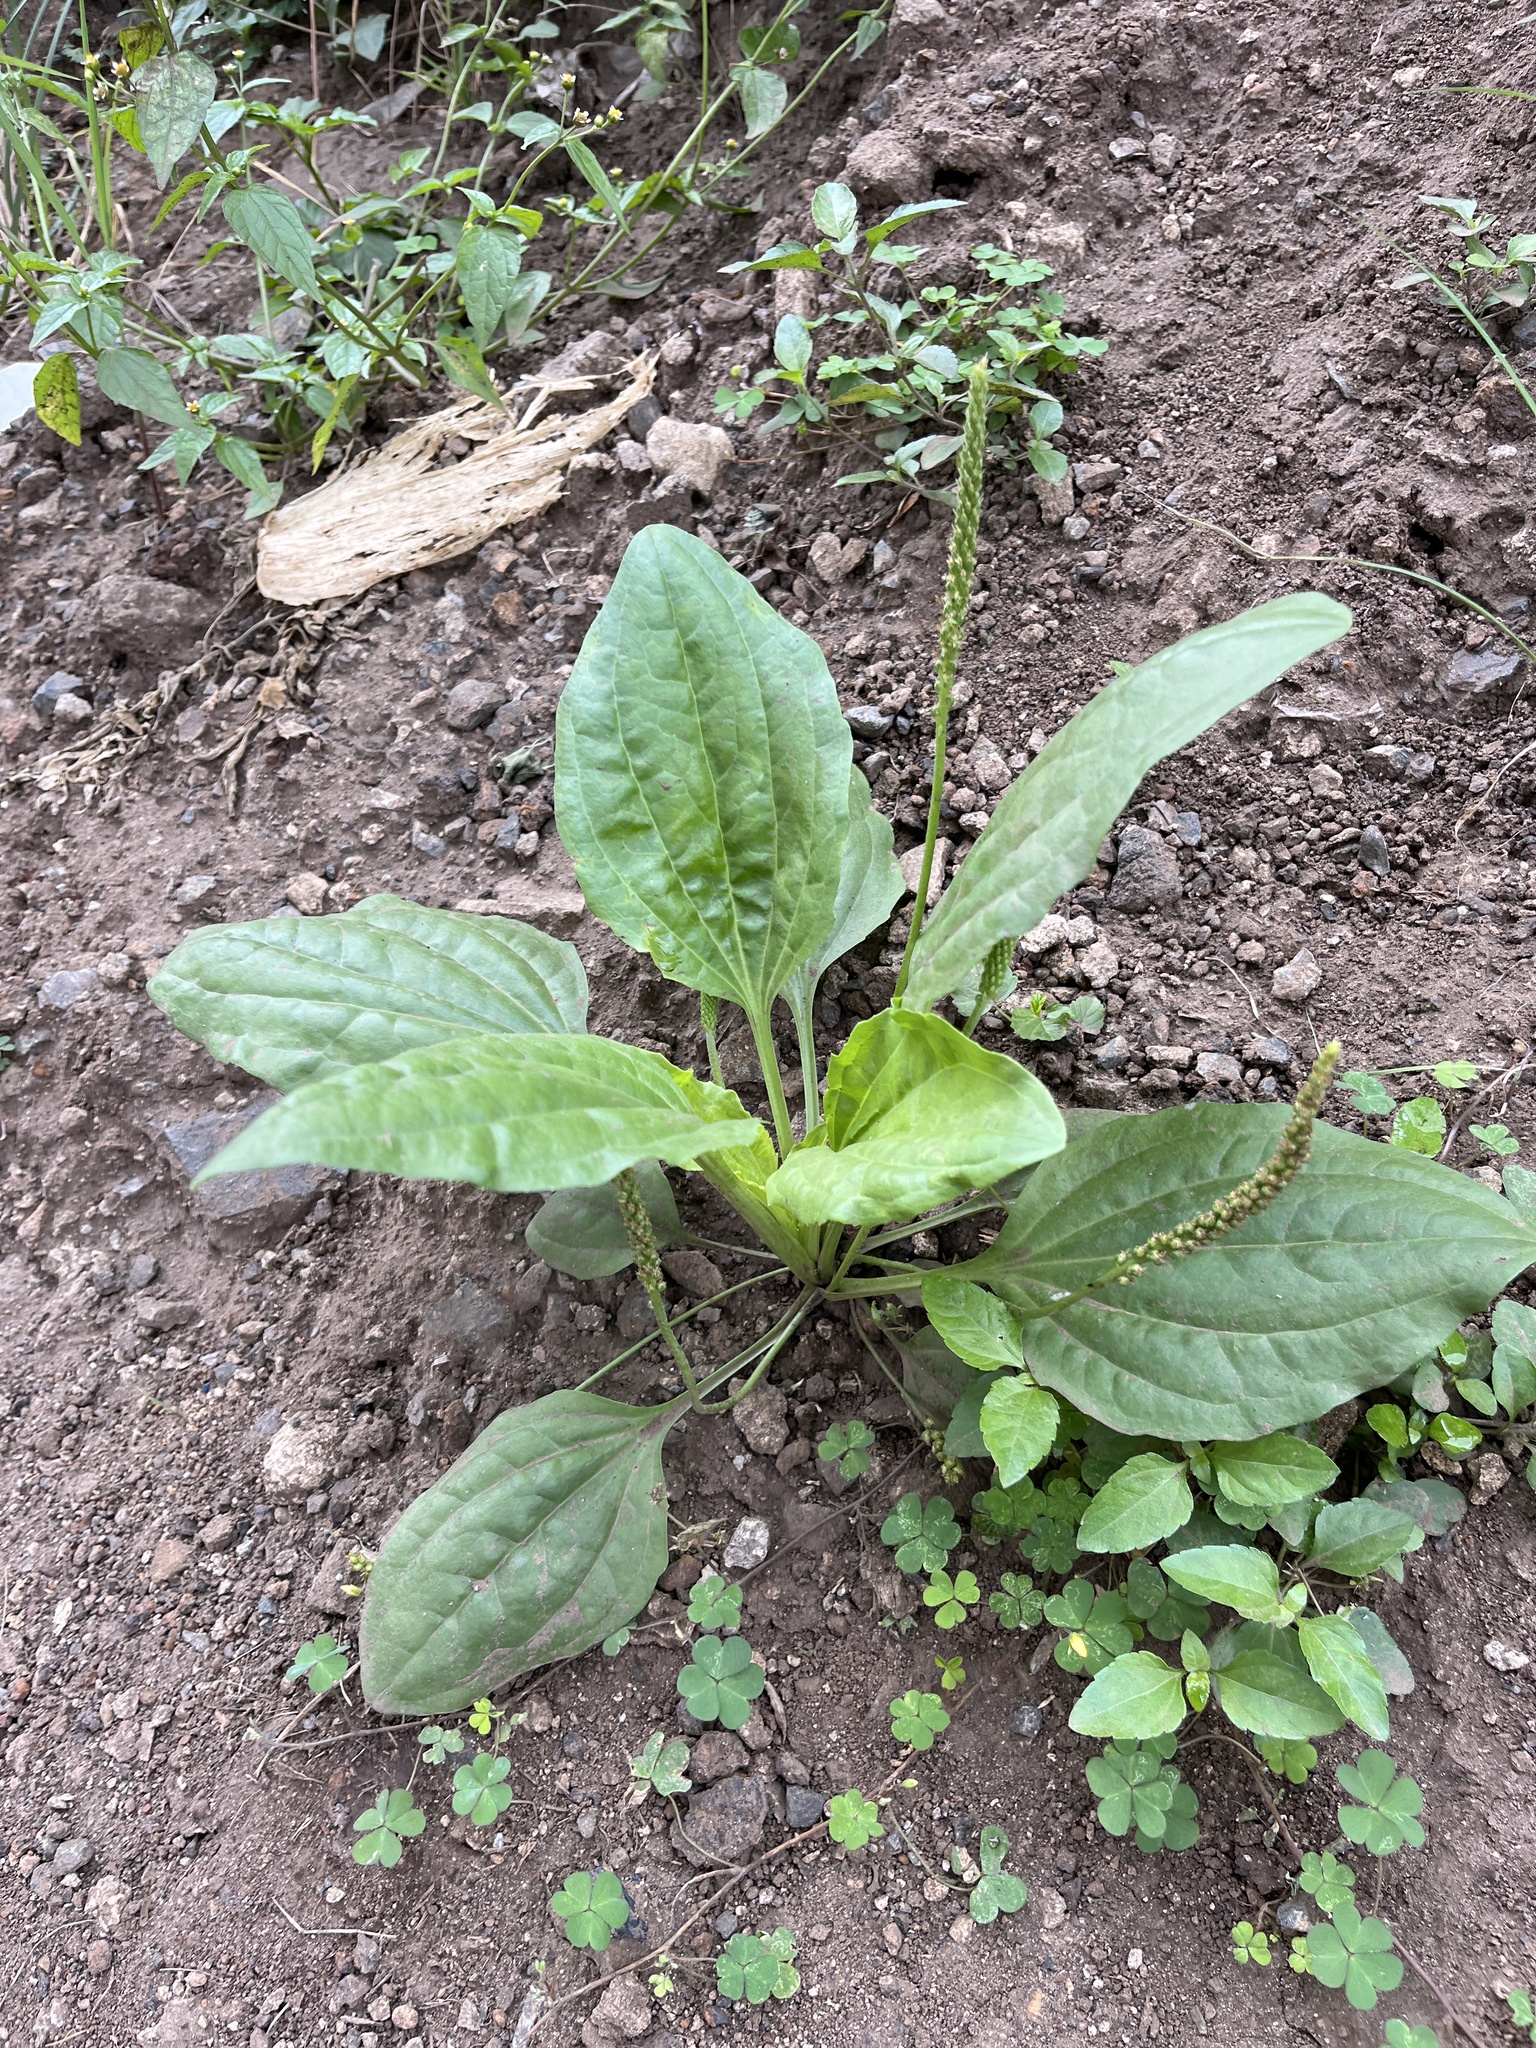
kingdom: Plantae
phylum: Tracheophyta
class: Magnoliopsida
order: Lamiales
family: Plantaginaceae
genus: Plantago
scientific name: Plantago major
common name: Common plantain
